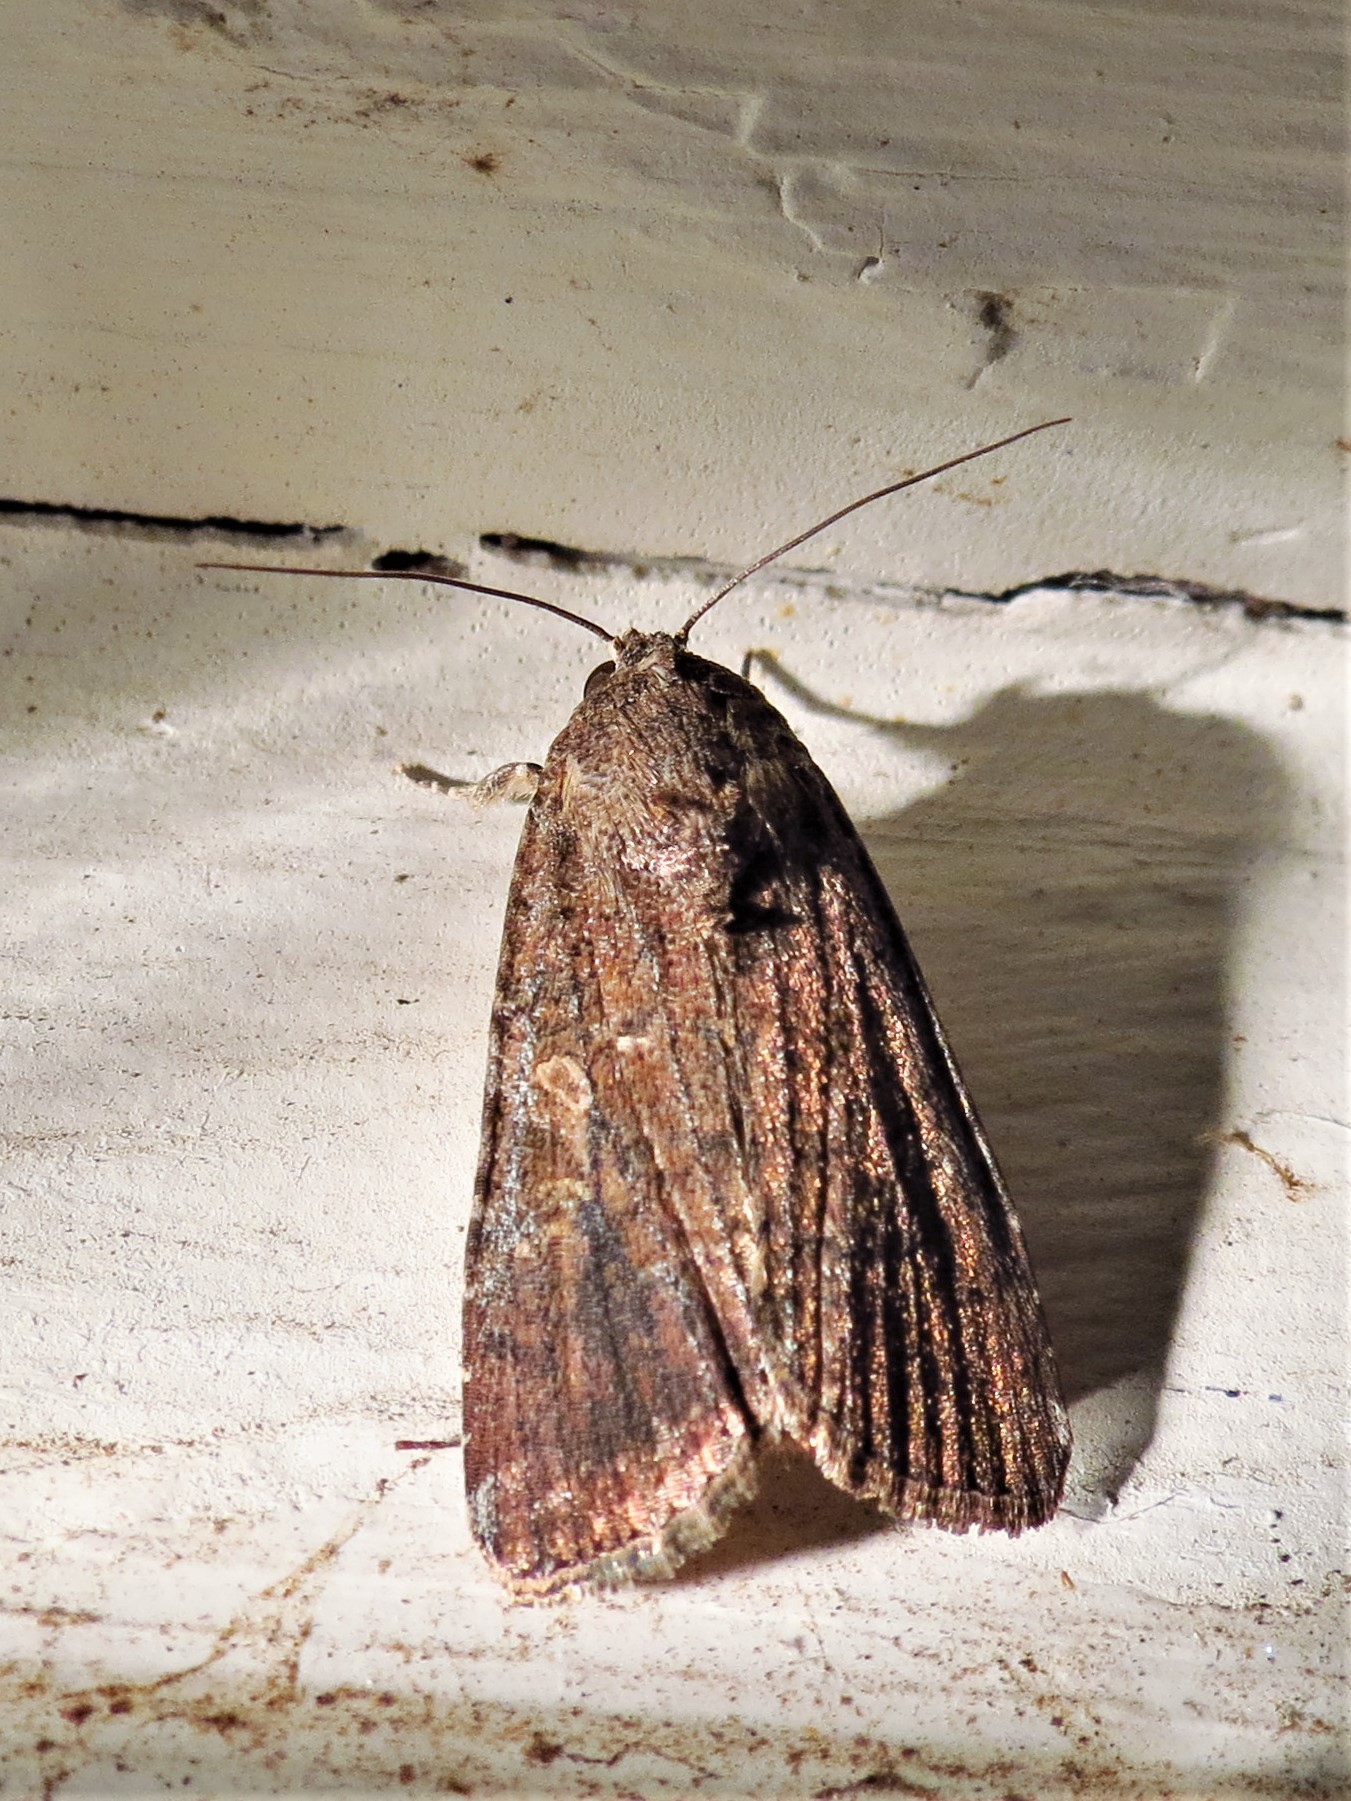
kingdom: Animalia
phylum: Arthropoda
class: Insecta
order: Lepidoptera
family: Noctuidae
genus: Spodoptera
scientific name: Spodoptera frugiperda
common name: Fall armyworm
